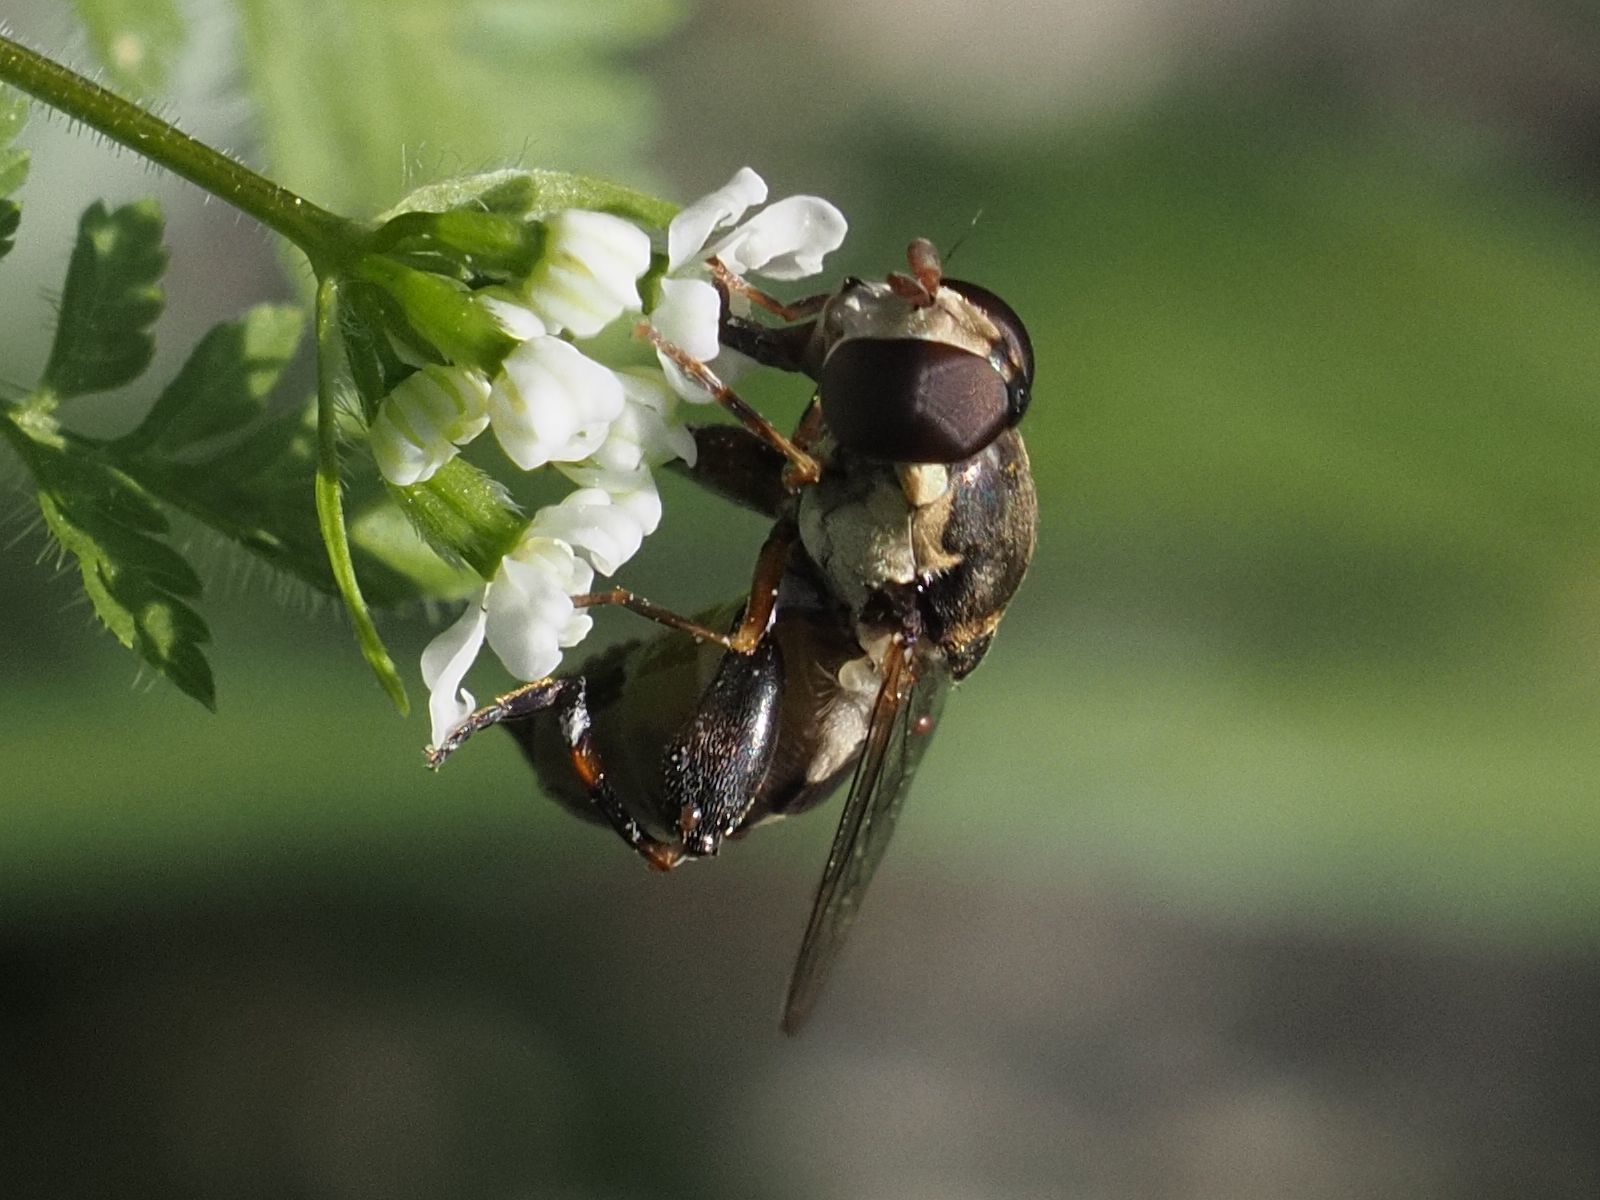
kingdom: Animalia
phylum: Arthropoda
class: Insecta
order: Diptera
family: Syrphidae
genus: Syritta
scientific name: Syritta pipiens
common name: Hover fly
